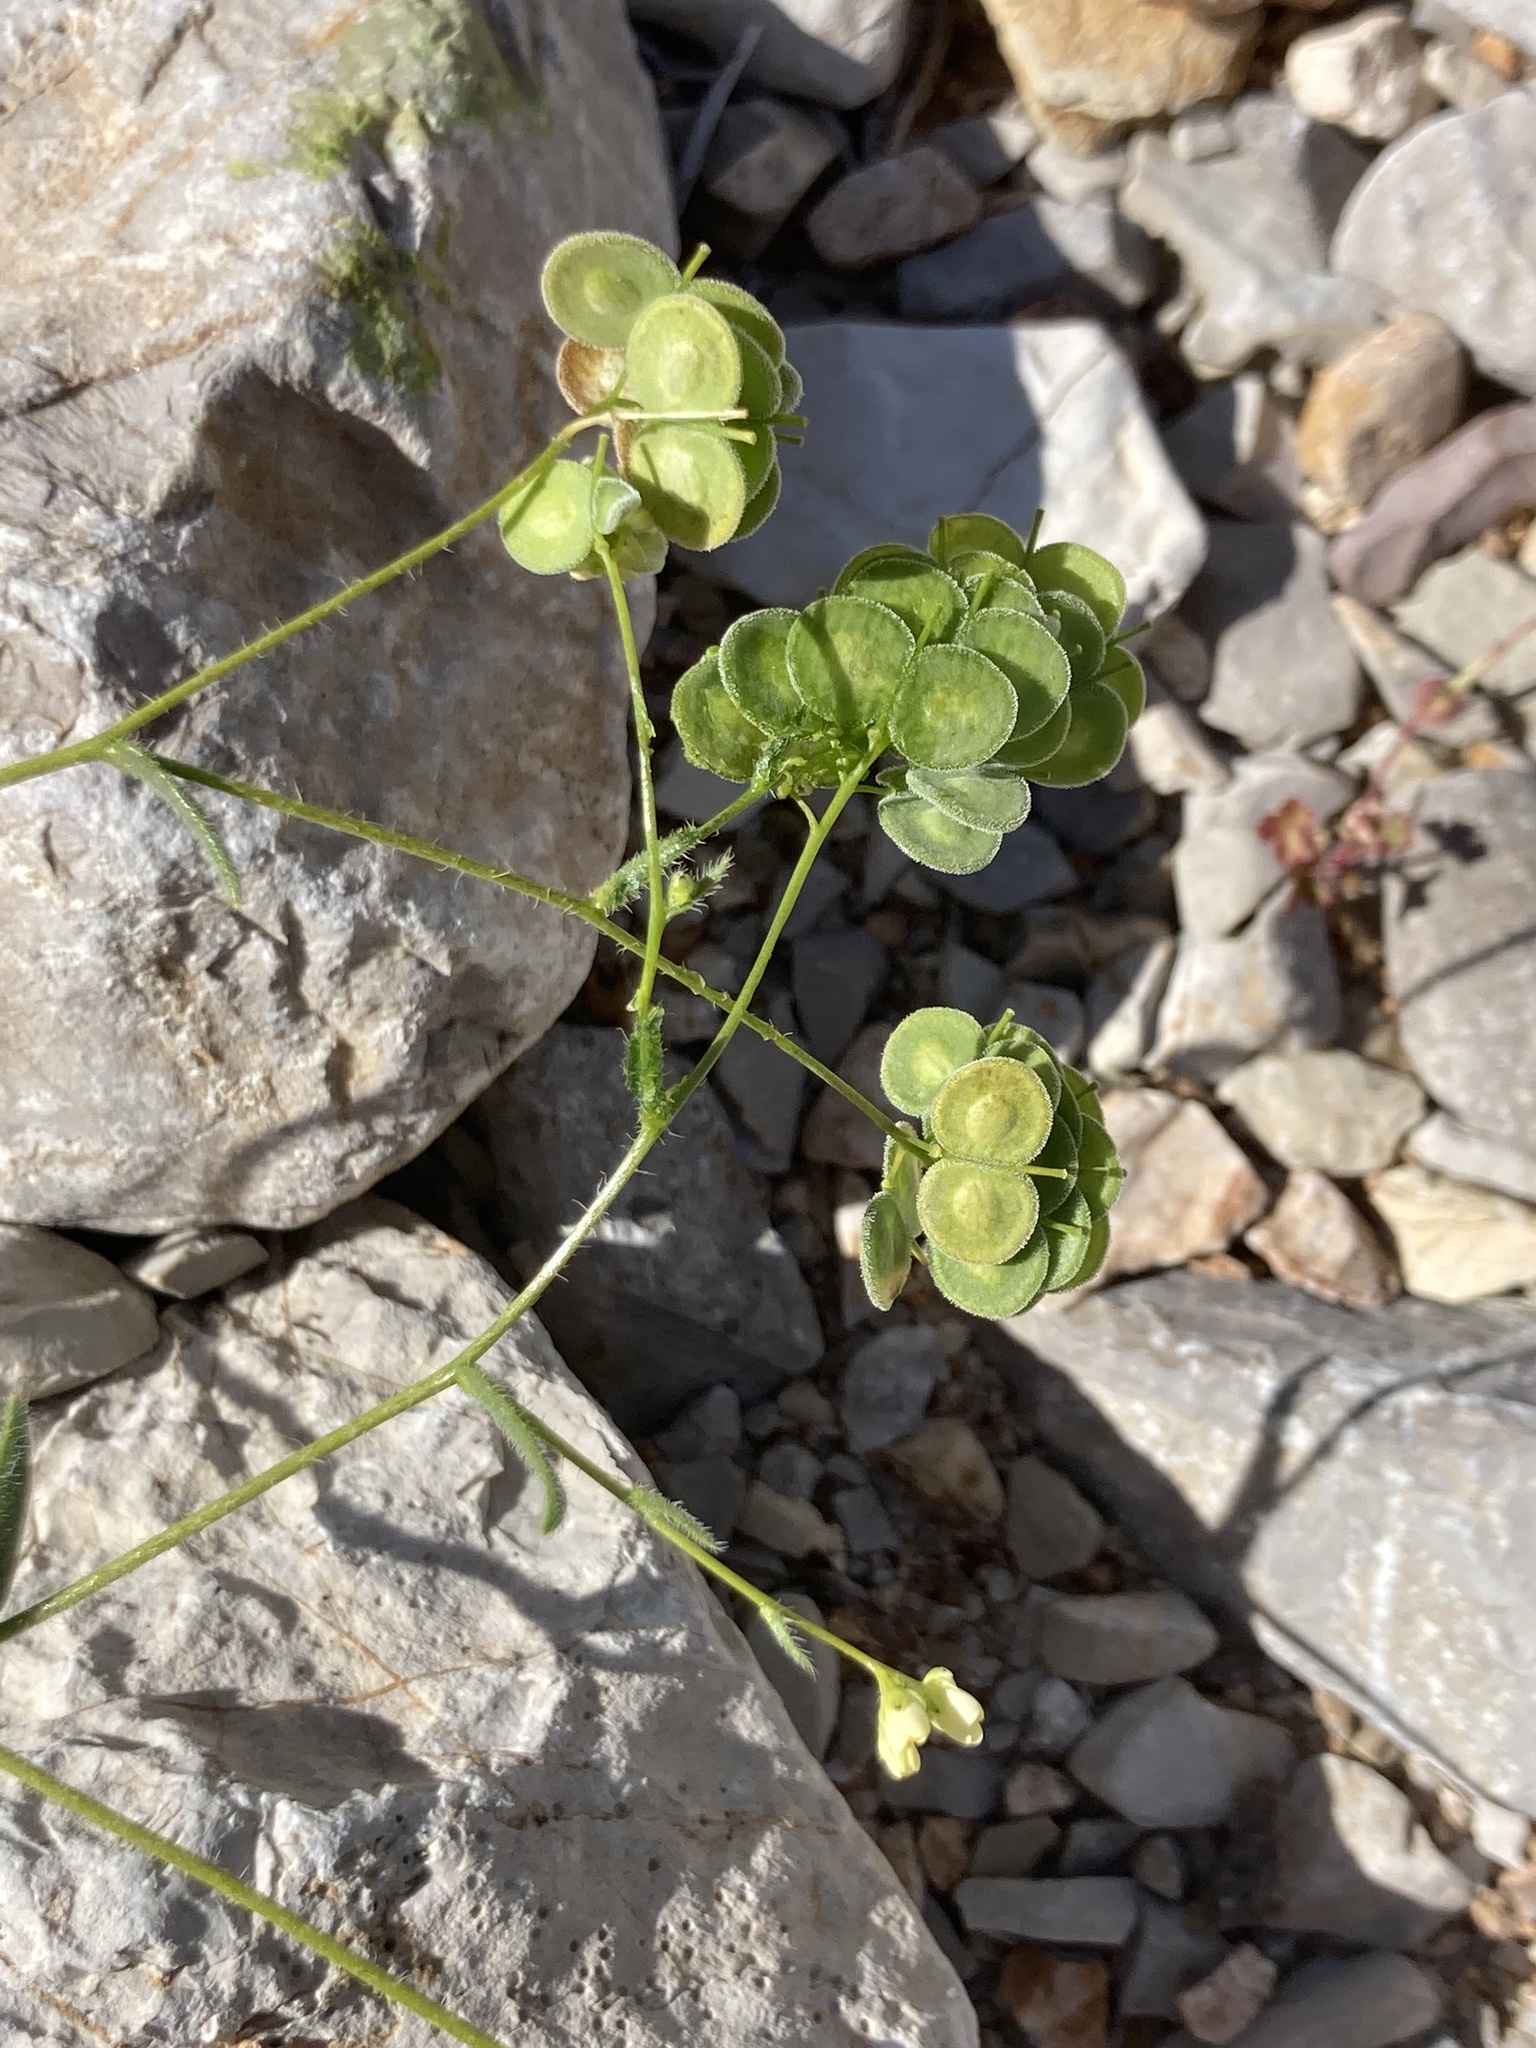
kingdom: Plantae
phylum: Tracheophyta
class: Magnoliopsida
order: Brassicales
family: Brassicaceae
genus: Biscutella
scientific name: Biscutella didyma
